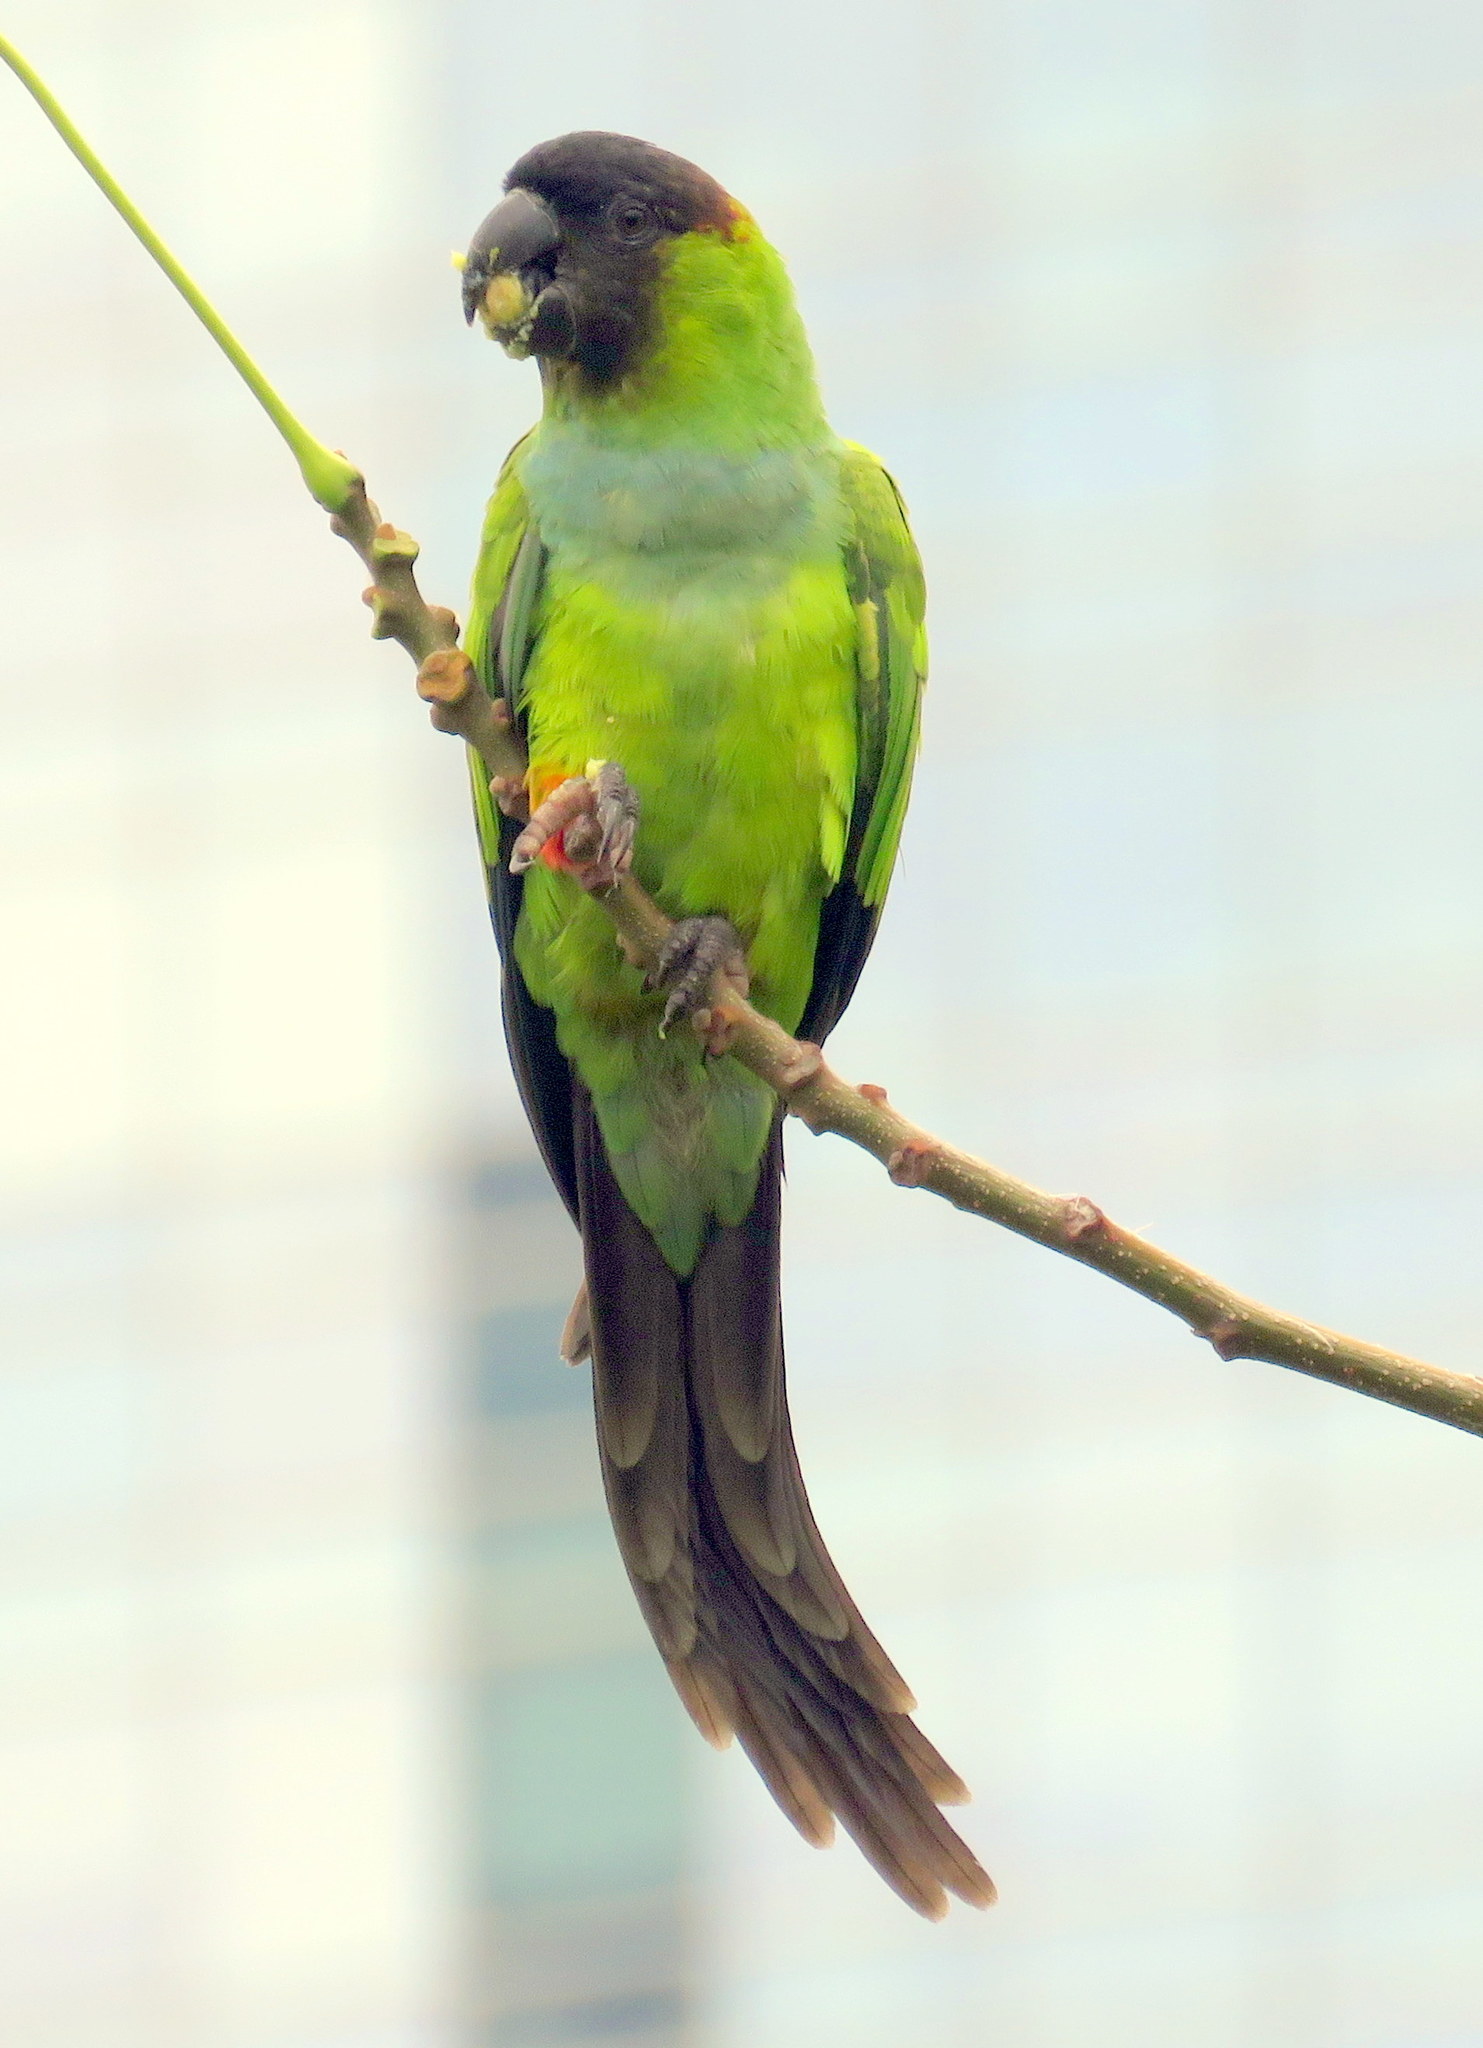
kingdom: Animalia
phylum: Chordata
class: Aves
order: Psittaciformes
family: Psittacidae
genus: Nandayus
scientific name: Nandayus nenday
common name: Nanday parakeet
